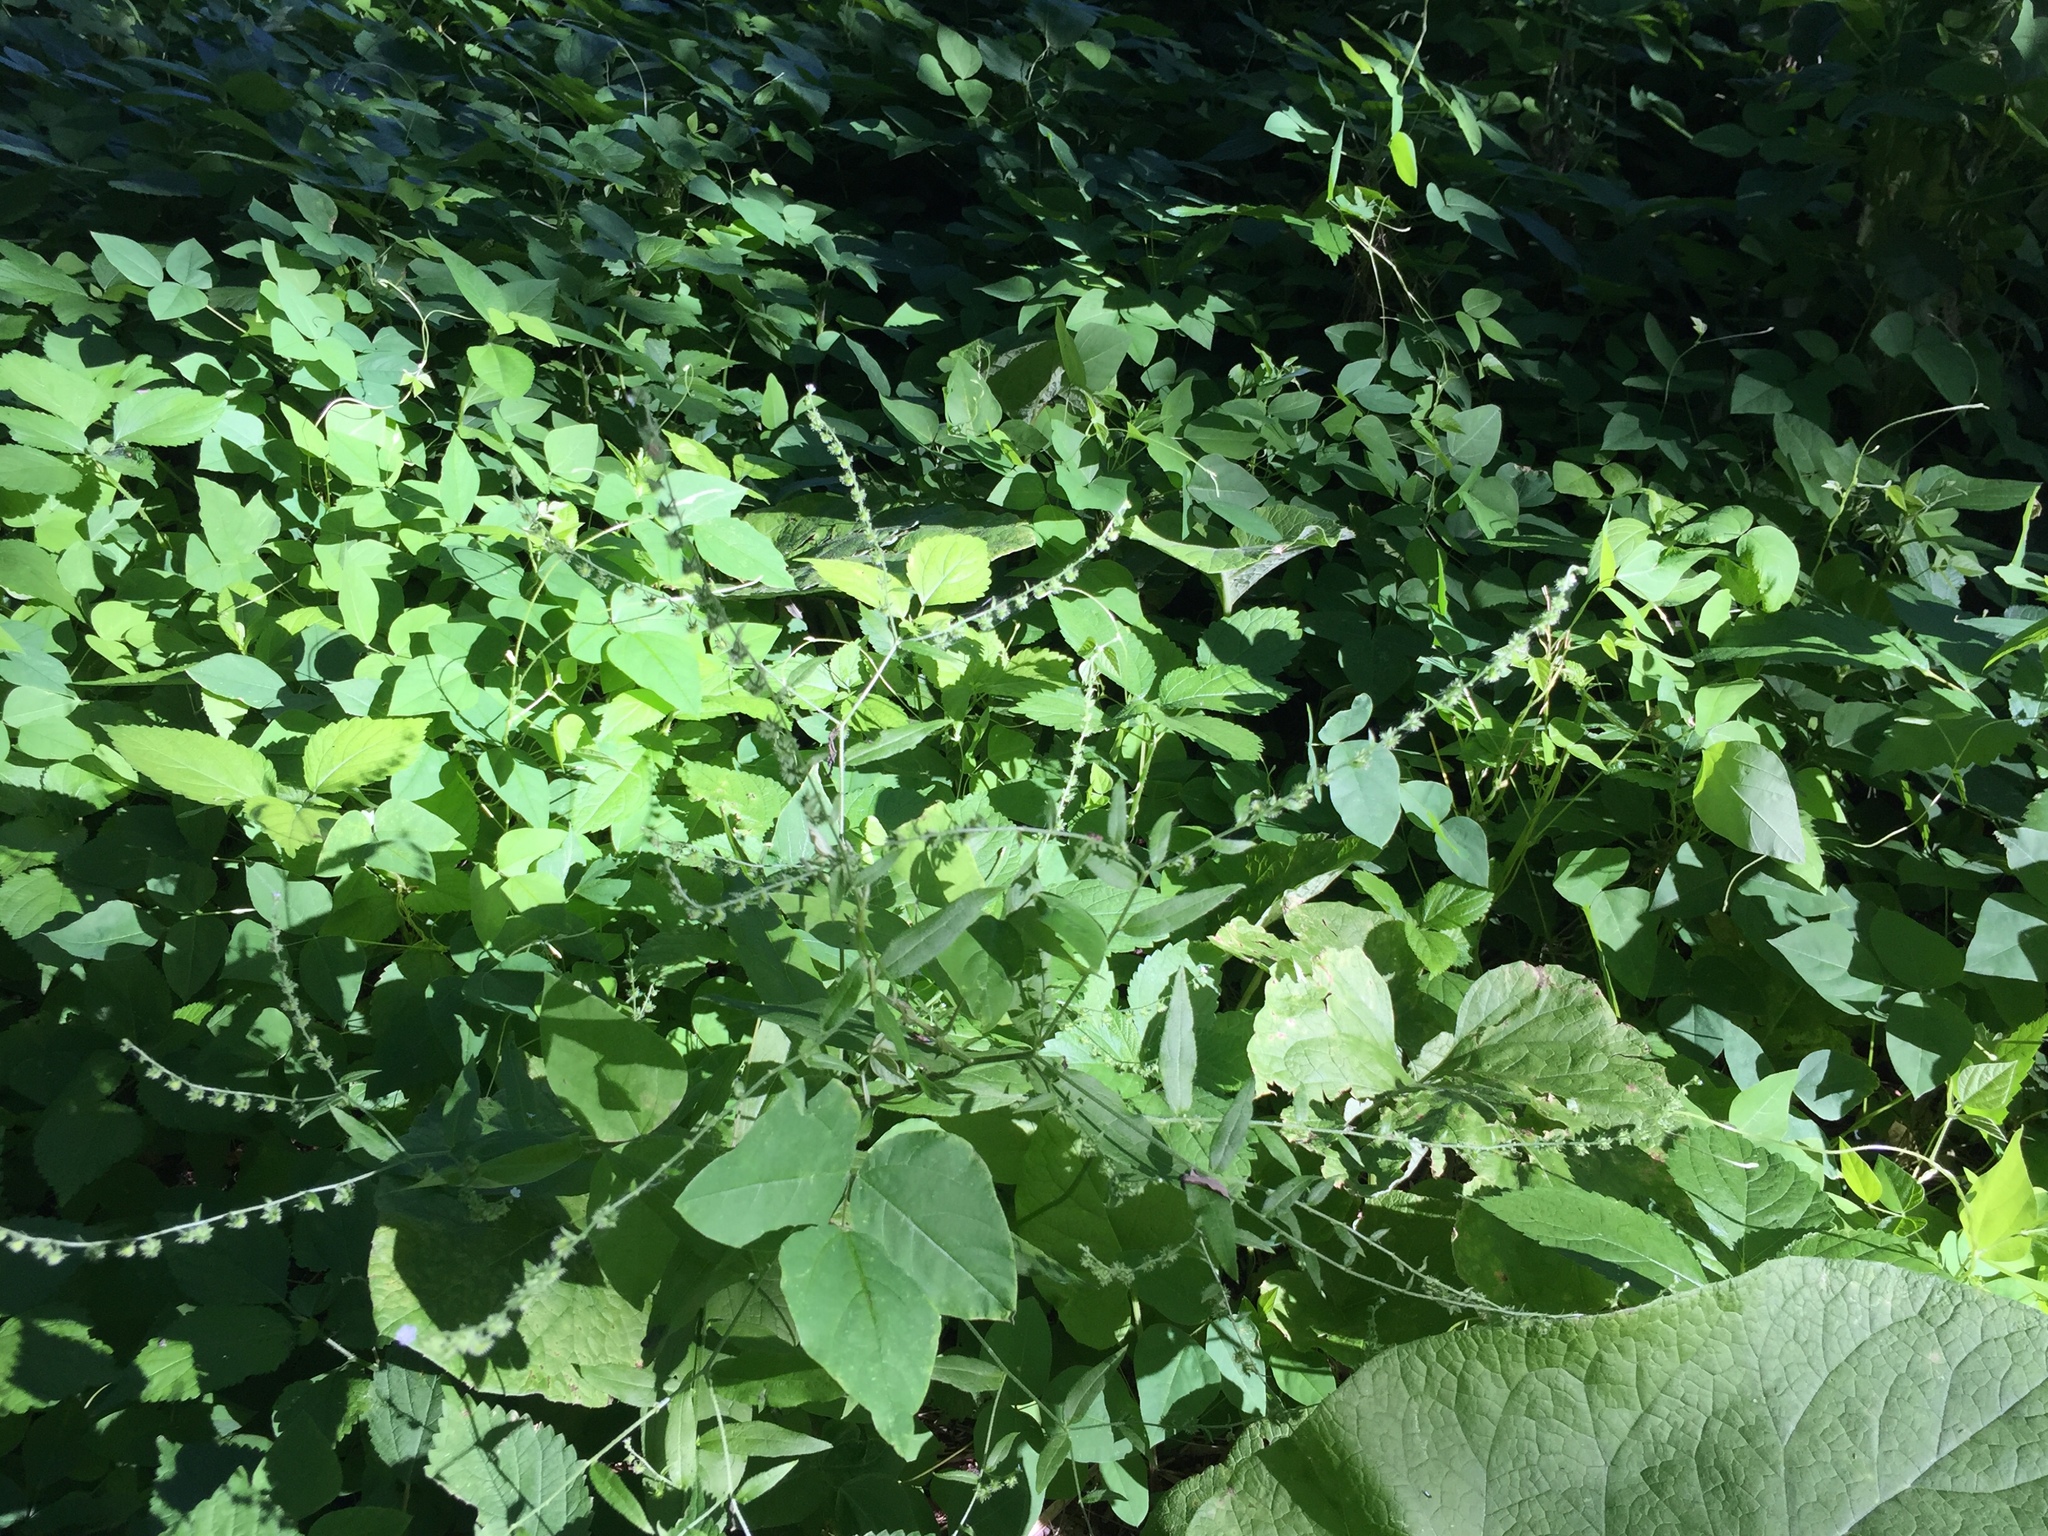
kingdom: Plantae
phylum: Tracheophyta
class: Magnoliopsida
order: Boraginales
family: Boraginaceae
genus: Hackelia
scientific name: Hackelia deflexa
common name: Nodding stickseed
